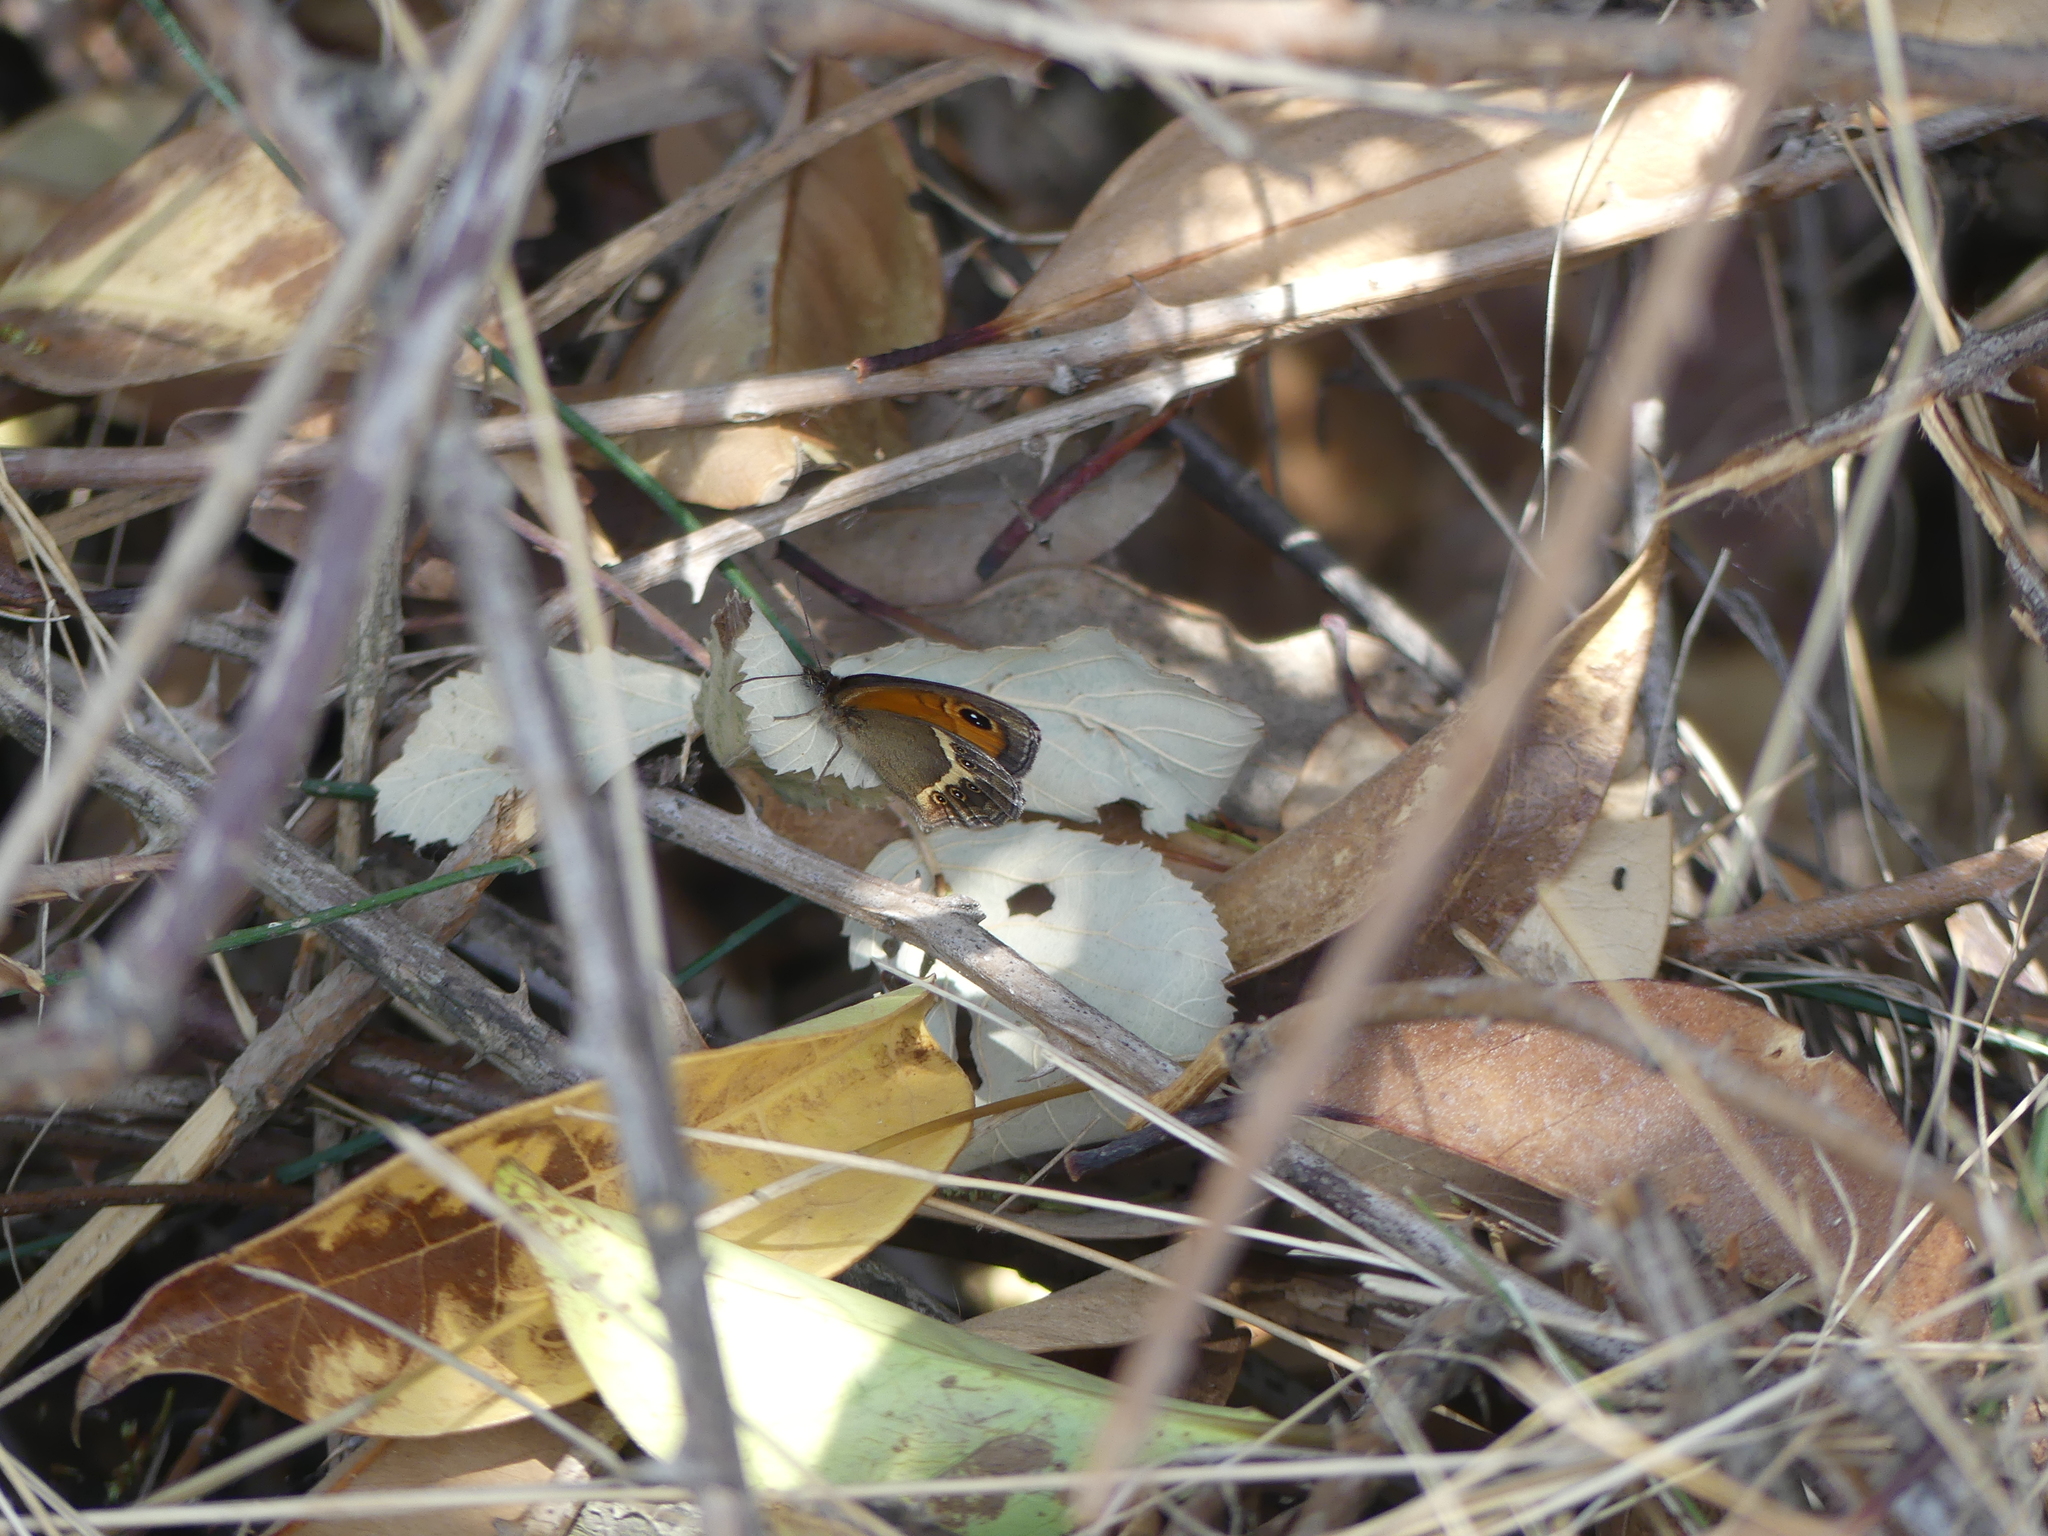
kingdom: Animalia
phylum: Arthropoda
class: Insecta
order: Lepidoptera
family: Nymphalidae
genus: Pyronia
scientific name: Pyronia bathseba
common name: Spanish gatekeeper
